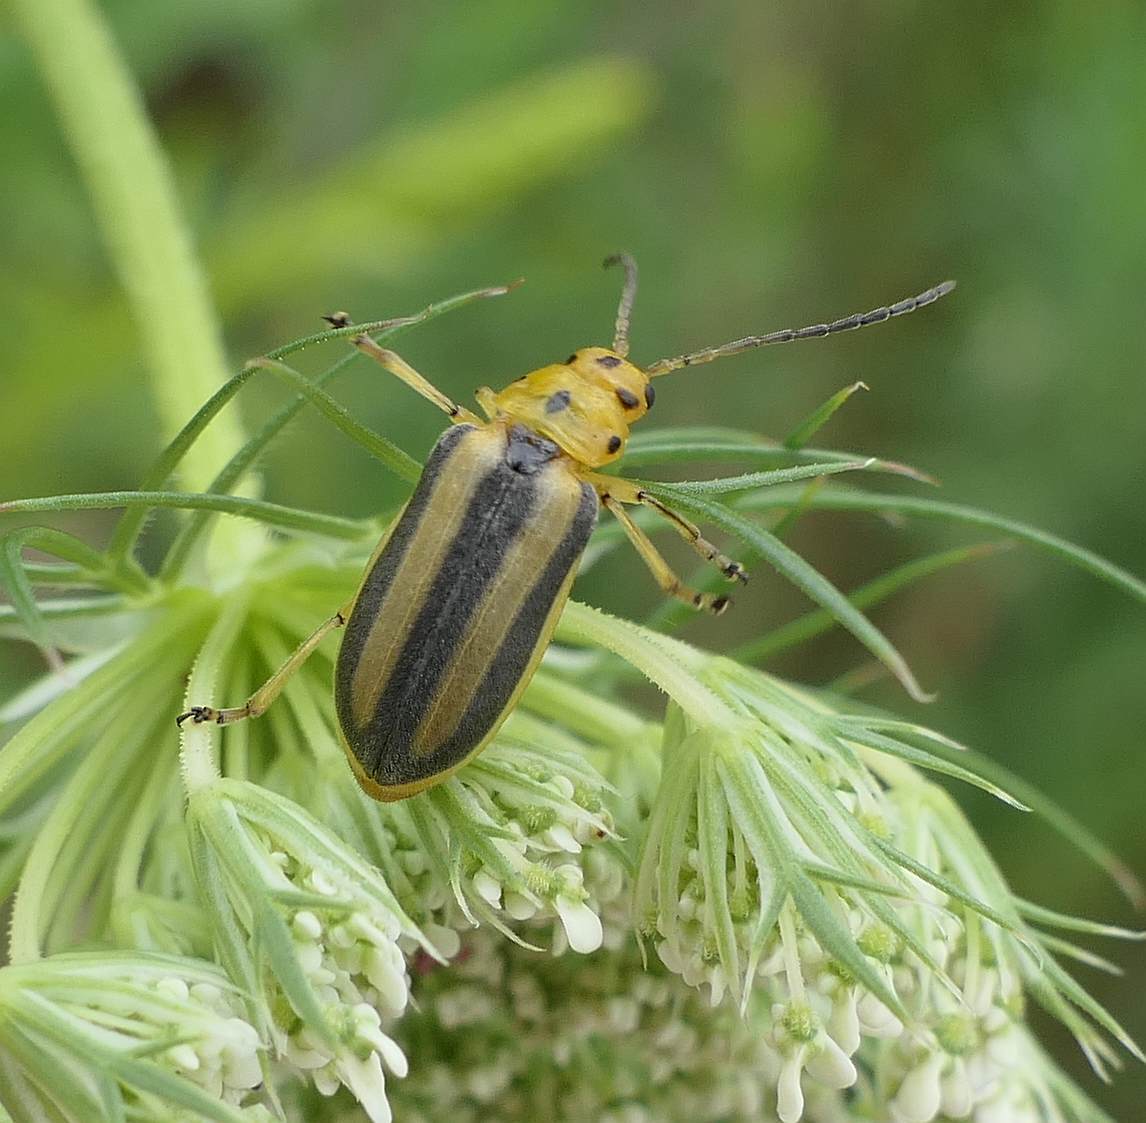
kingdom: Animalia
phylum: Arthropoda
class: Insecta
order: Coleoptera
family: Chrysomelidae
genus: Trirhabda
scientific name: Trirhabda canadensis
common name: Goldenrod leaf beetle
